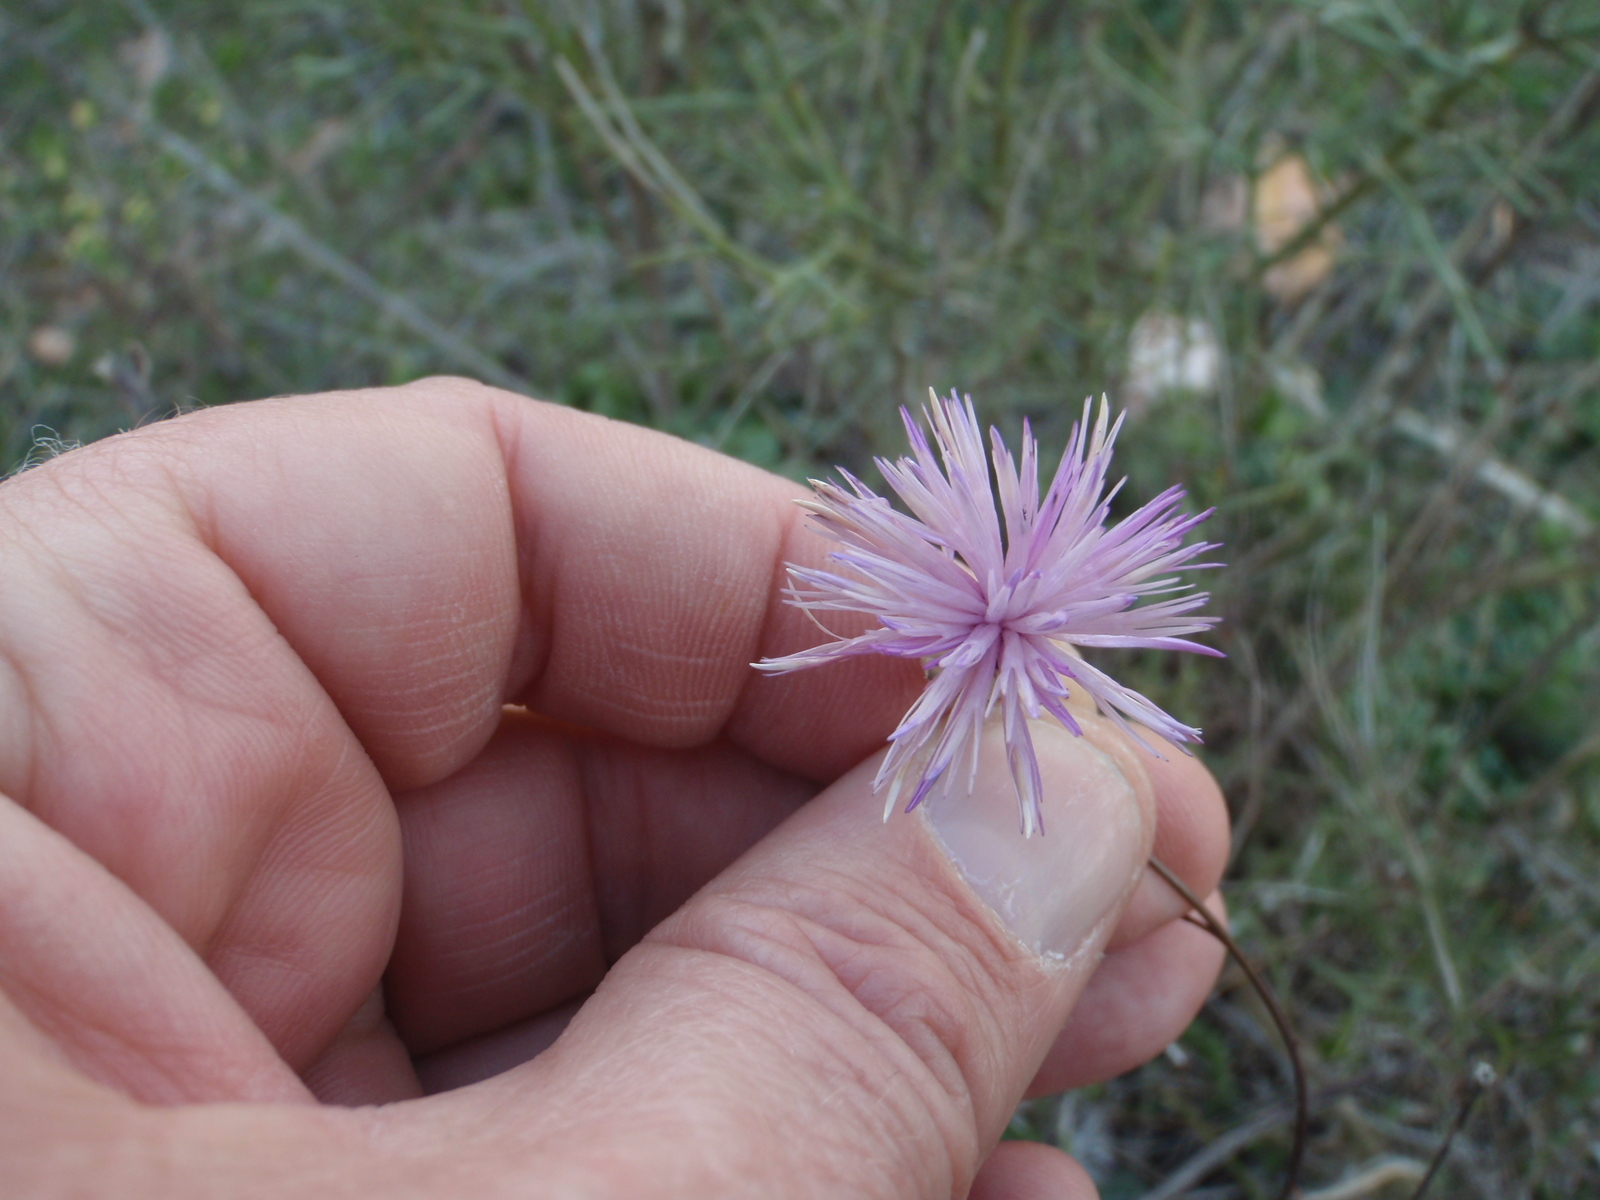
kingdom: Plantae
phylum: Tracheophyta
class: Magnoliopsida
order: Asterales
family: Asteraceae
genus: Mantisalca
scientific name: Mantisalca salmantica
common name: Dagger flower
